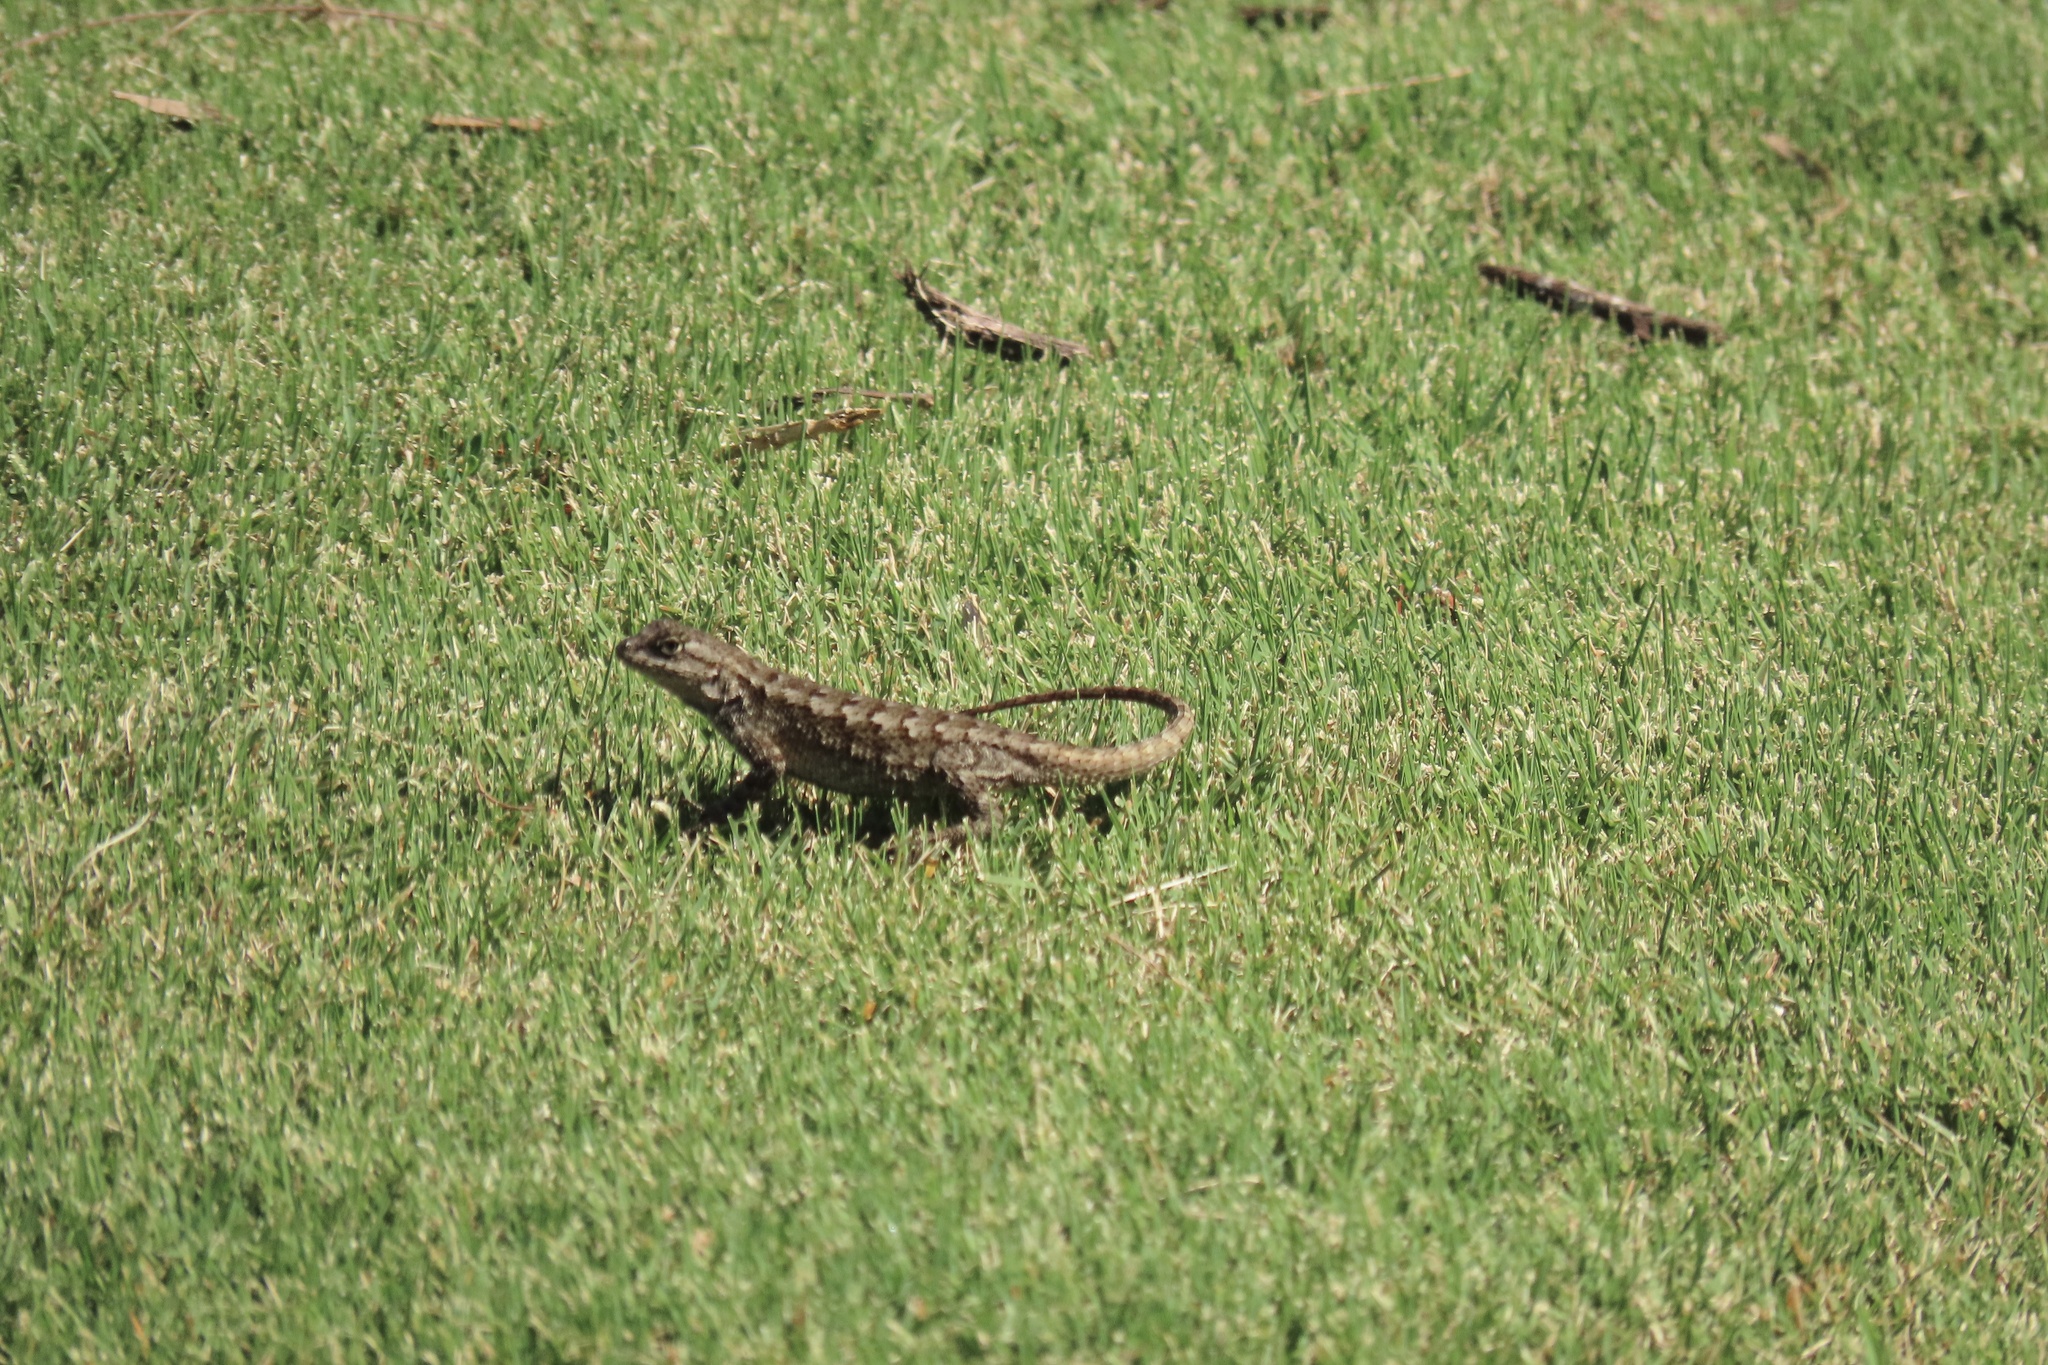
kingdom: Animalia
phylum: Chordata
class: Squamata
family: Phrynosomatidae
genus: Sceloporus
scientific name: Sceloporus occidentalis
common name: Western fence lizard
